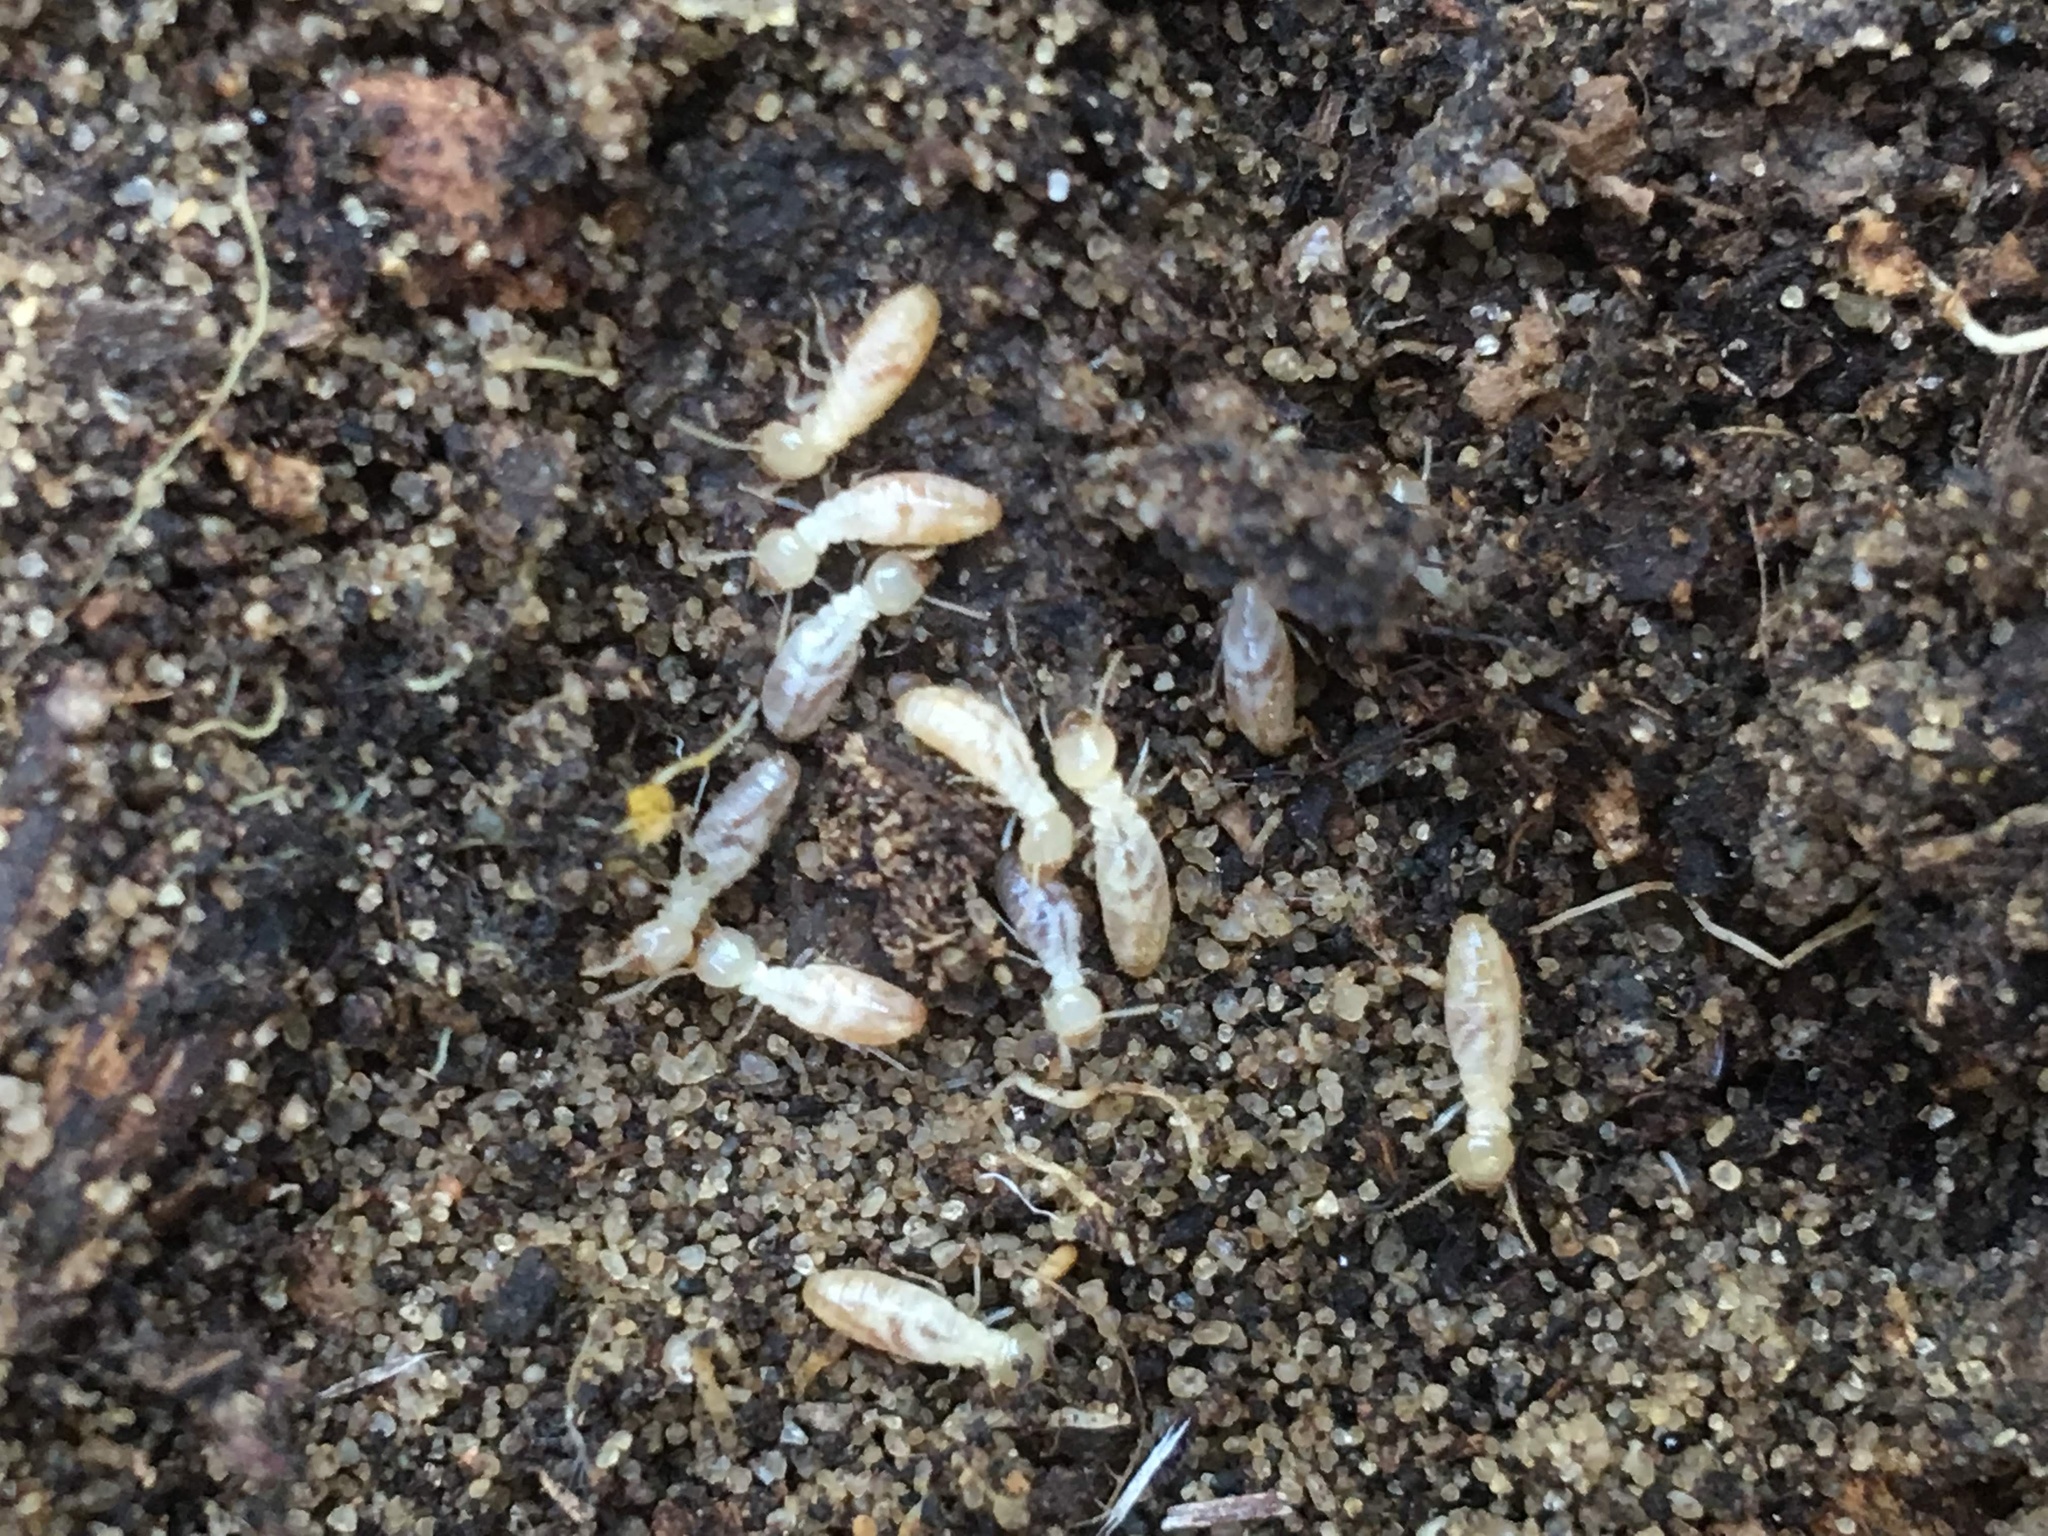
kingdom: Animalia
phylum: Arthropoda
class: Insecta
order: Blattodea
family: Rhinotermitidae
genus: Reticulitermes
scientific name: Reticulitermes lucifugus
